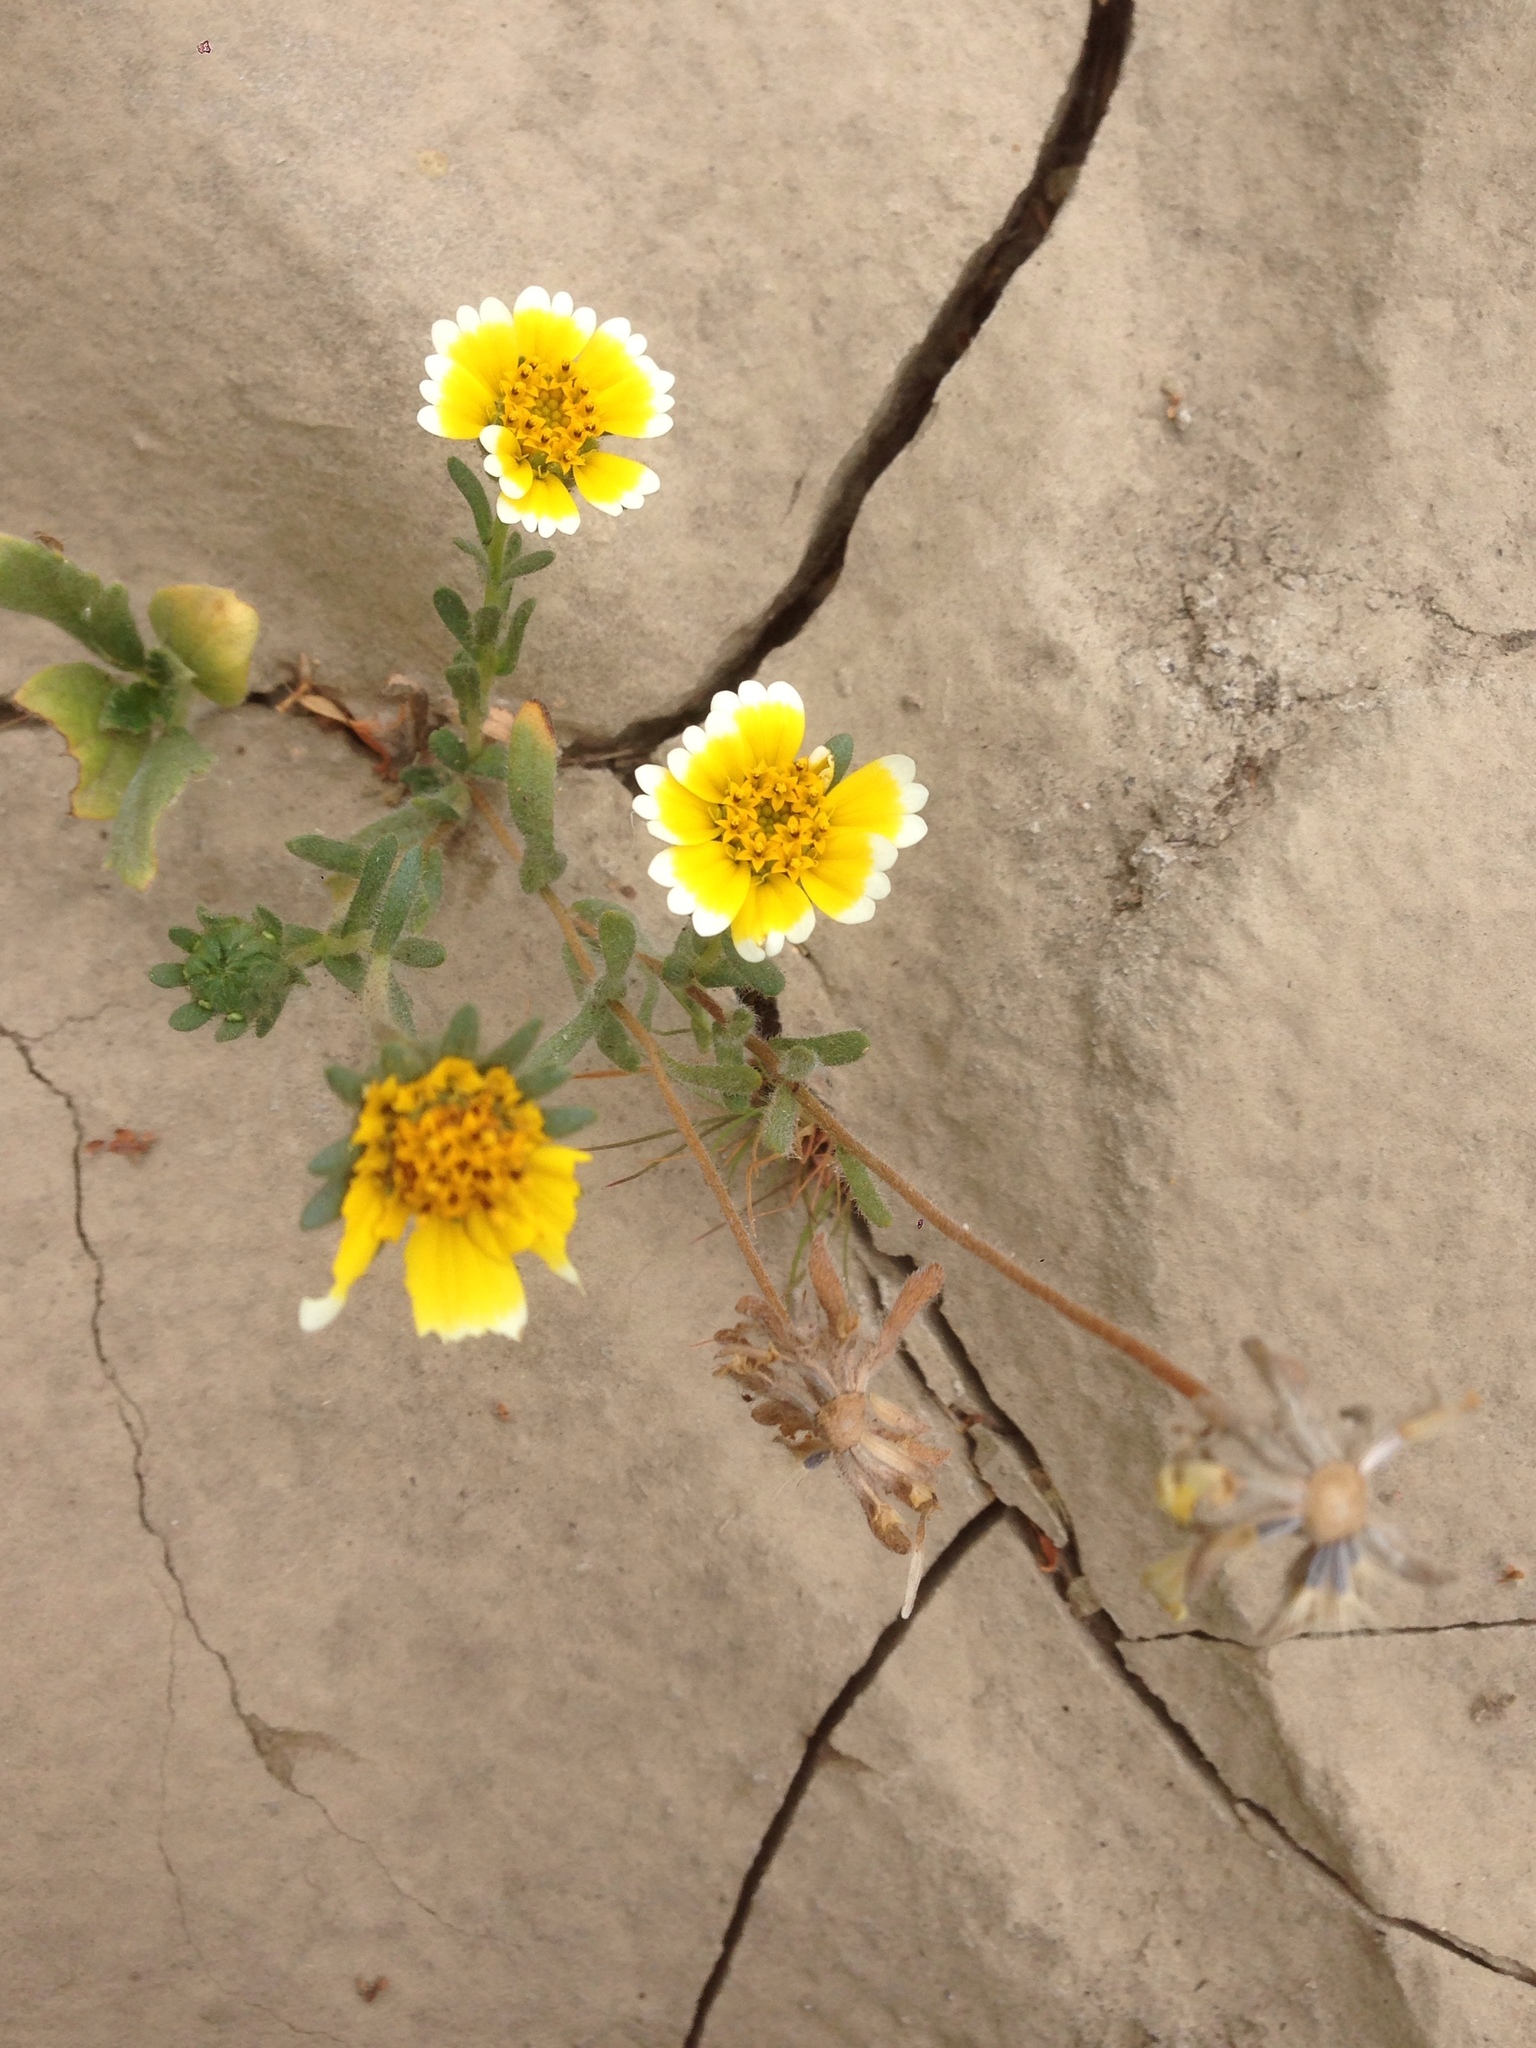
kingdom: Plantae
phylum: Tracheophyta
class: Magnoliopsida
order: Asterales
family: Asteraceae
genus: Layia
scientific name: Layia platyglossa
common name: Tidy-tips
